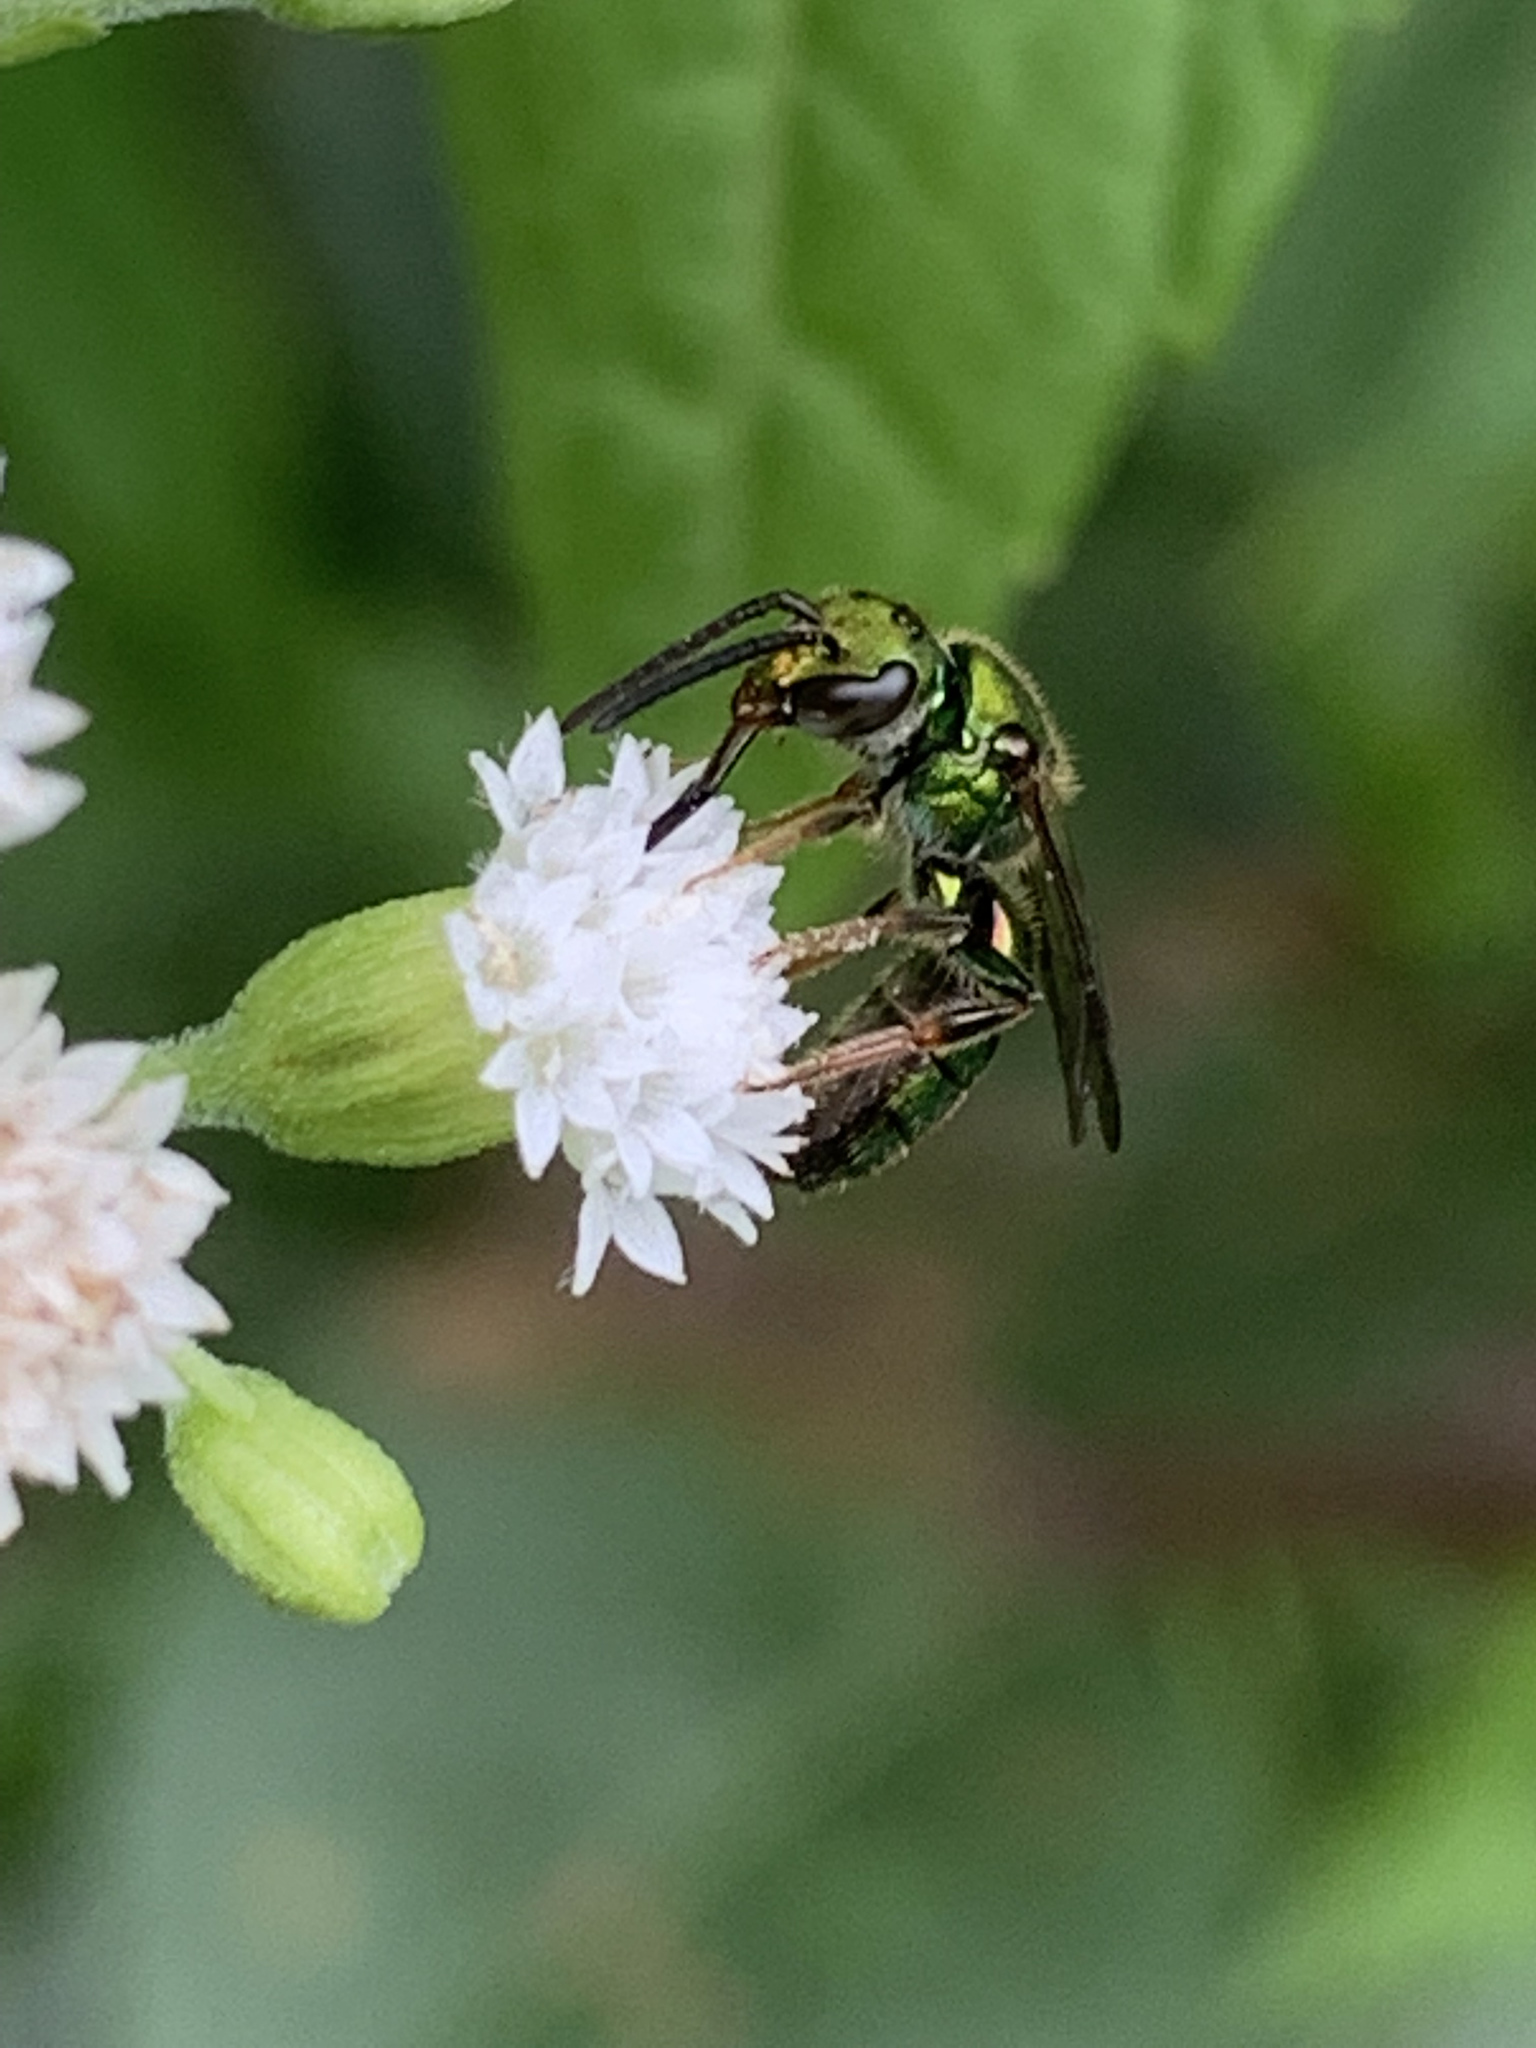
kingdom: Animalia
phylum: Arthropoda
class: Insecta
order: Hymenoptera
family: Halictidae
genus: Augochlora
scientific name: Augochlora pura
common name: Pure green sweat bee
